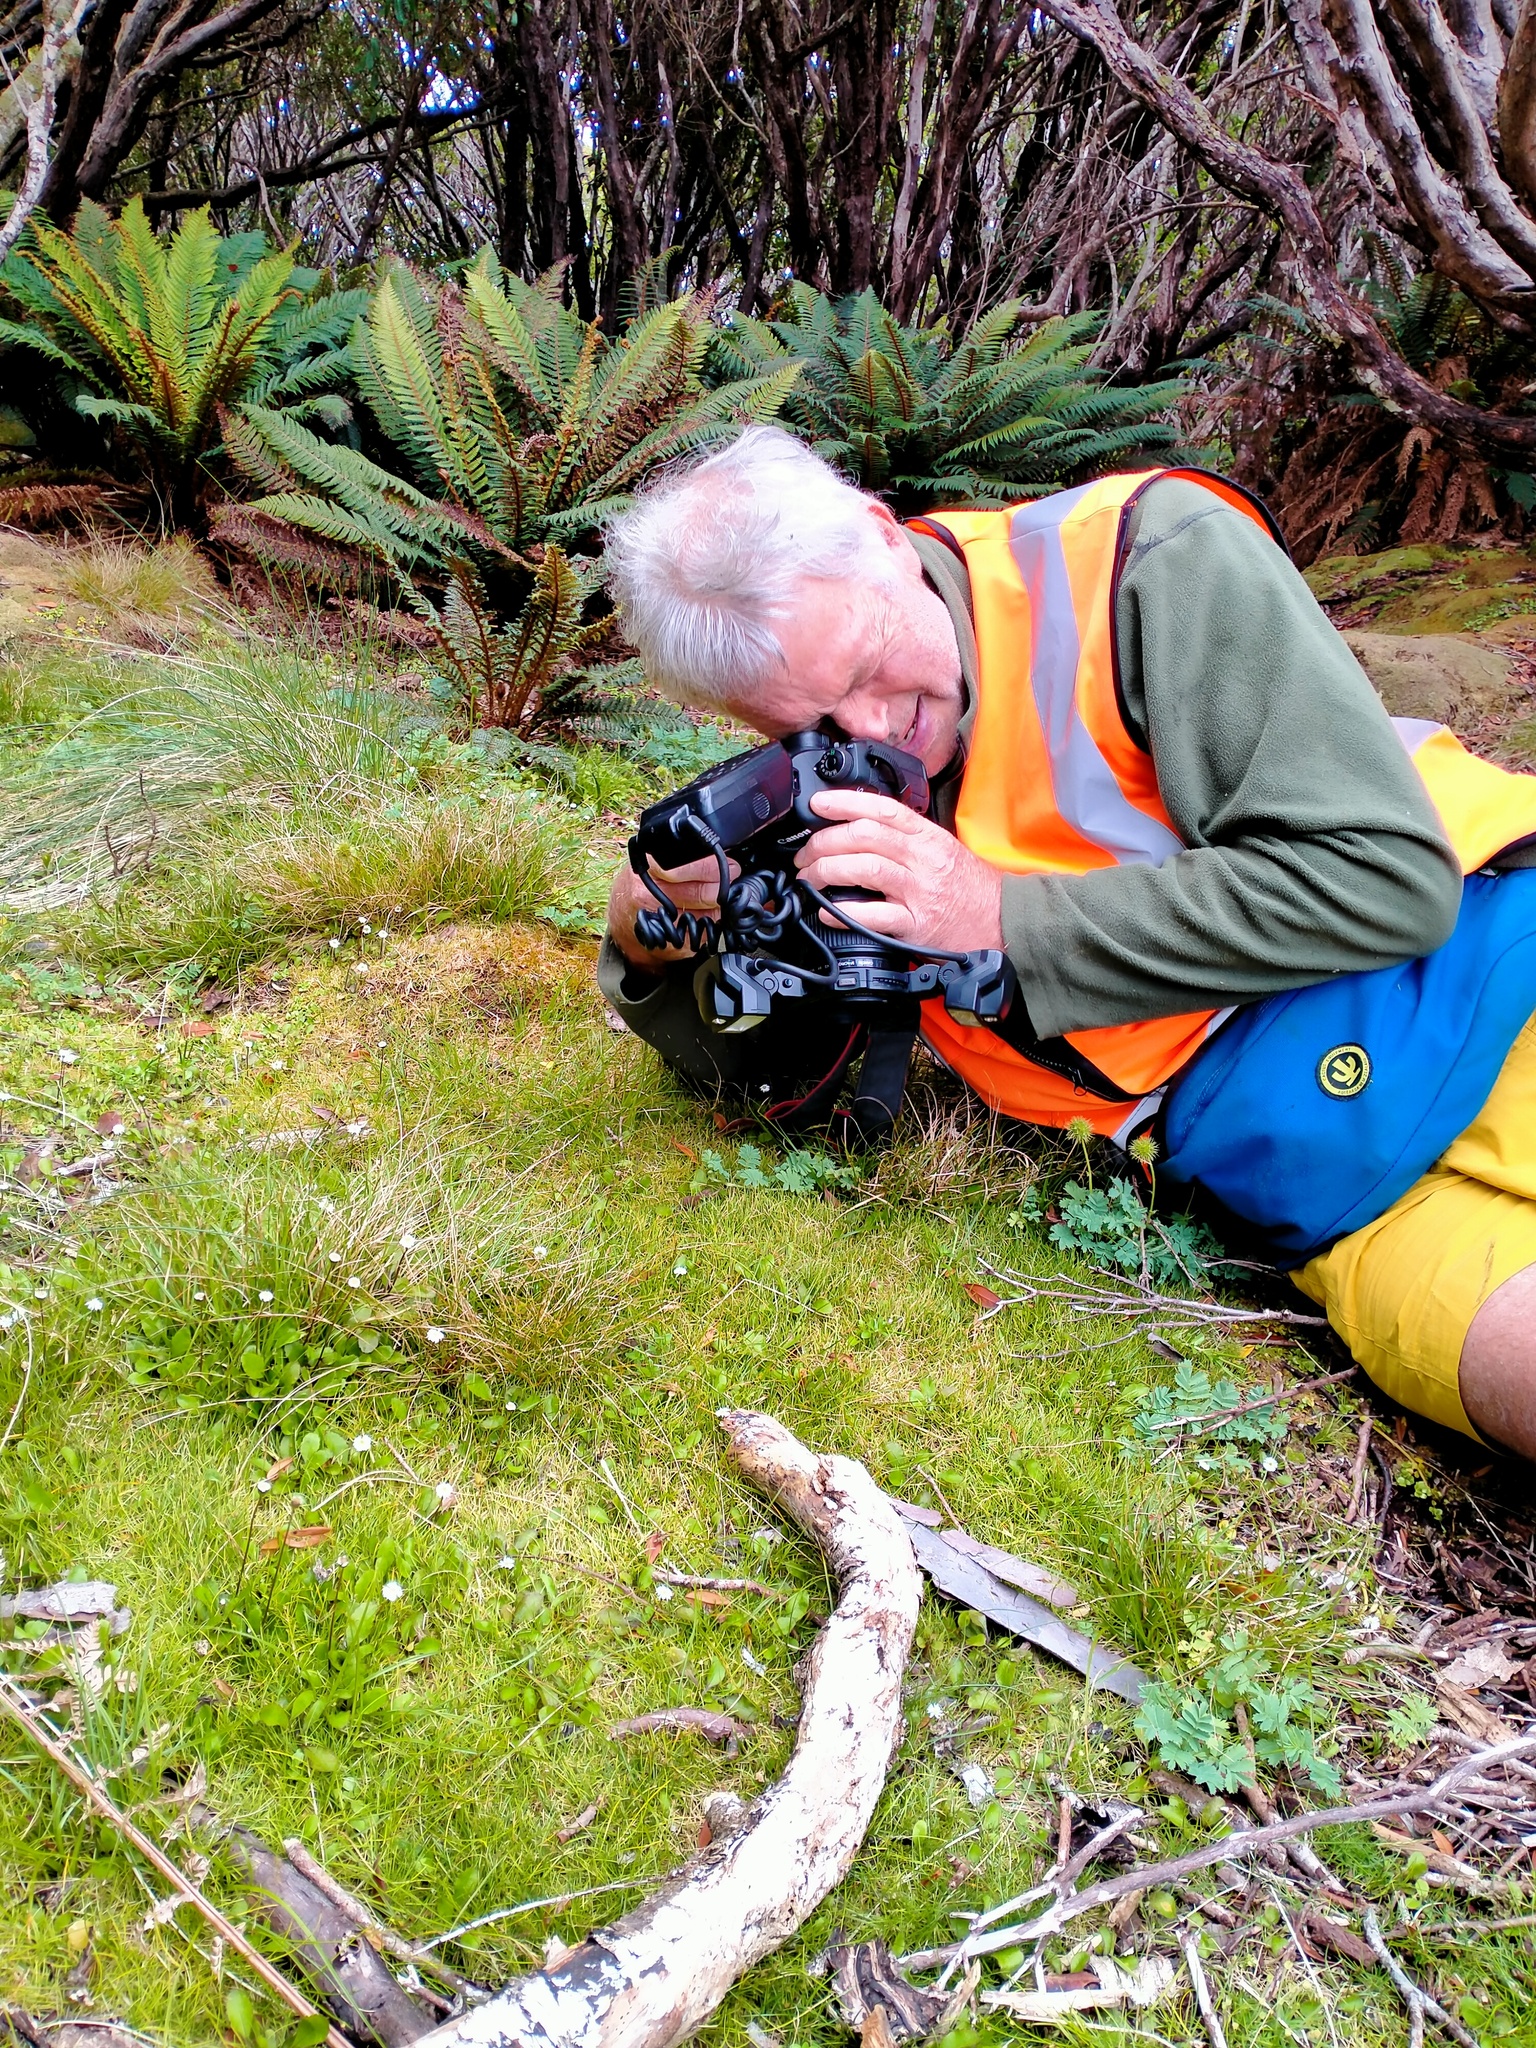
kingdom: Plantae
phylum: Tracheophyta
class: Magnoliopsida
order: Rosales
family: Rosaceae
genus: Acaena
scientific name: Acaena minor
